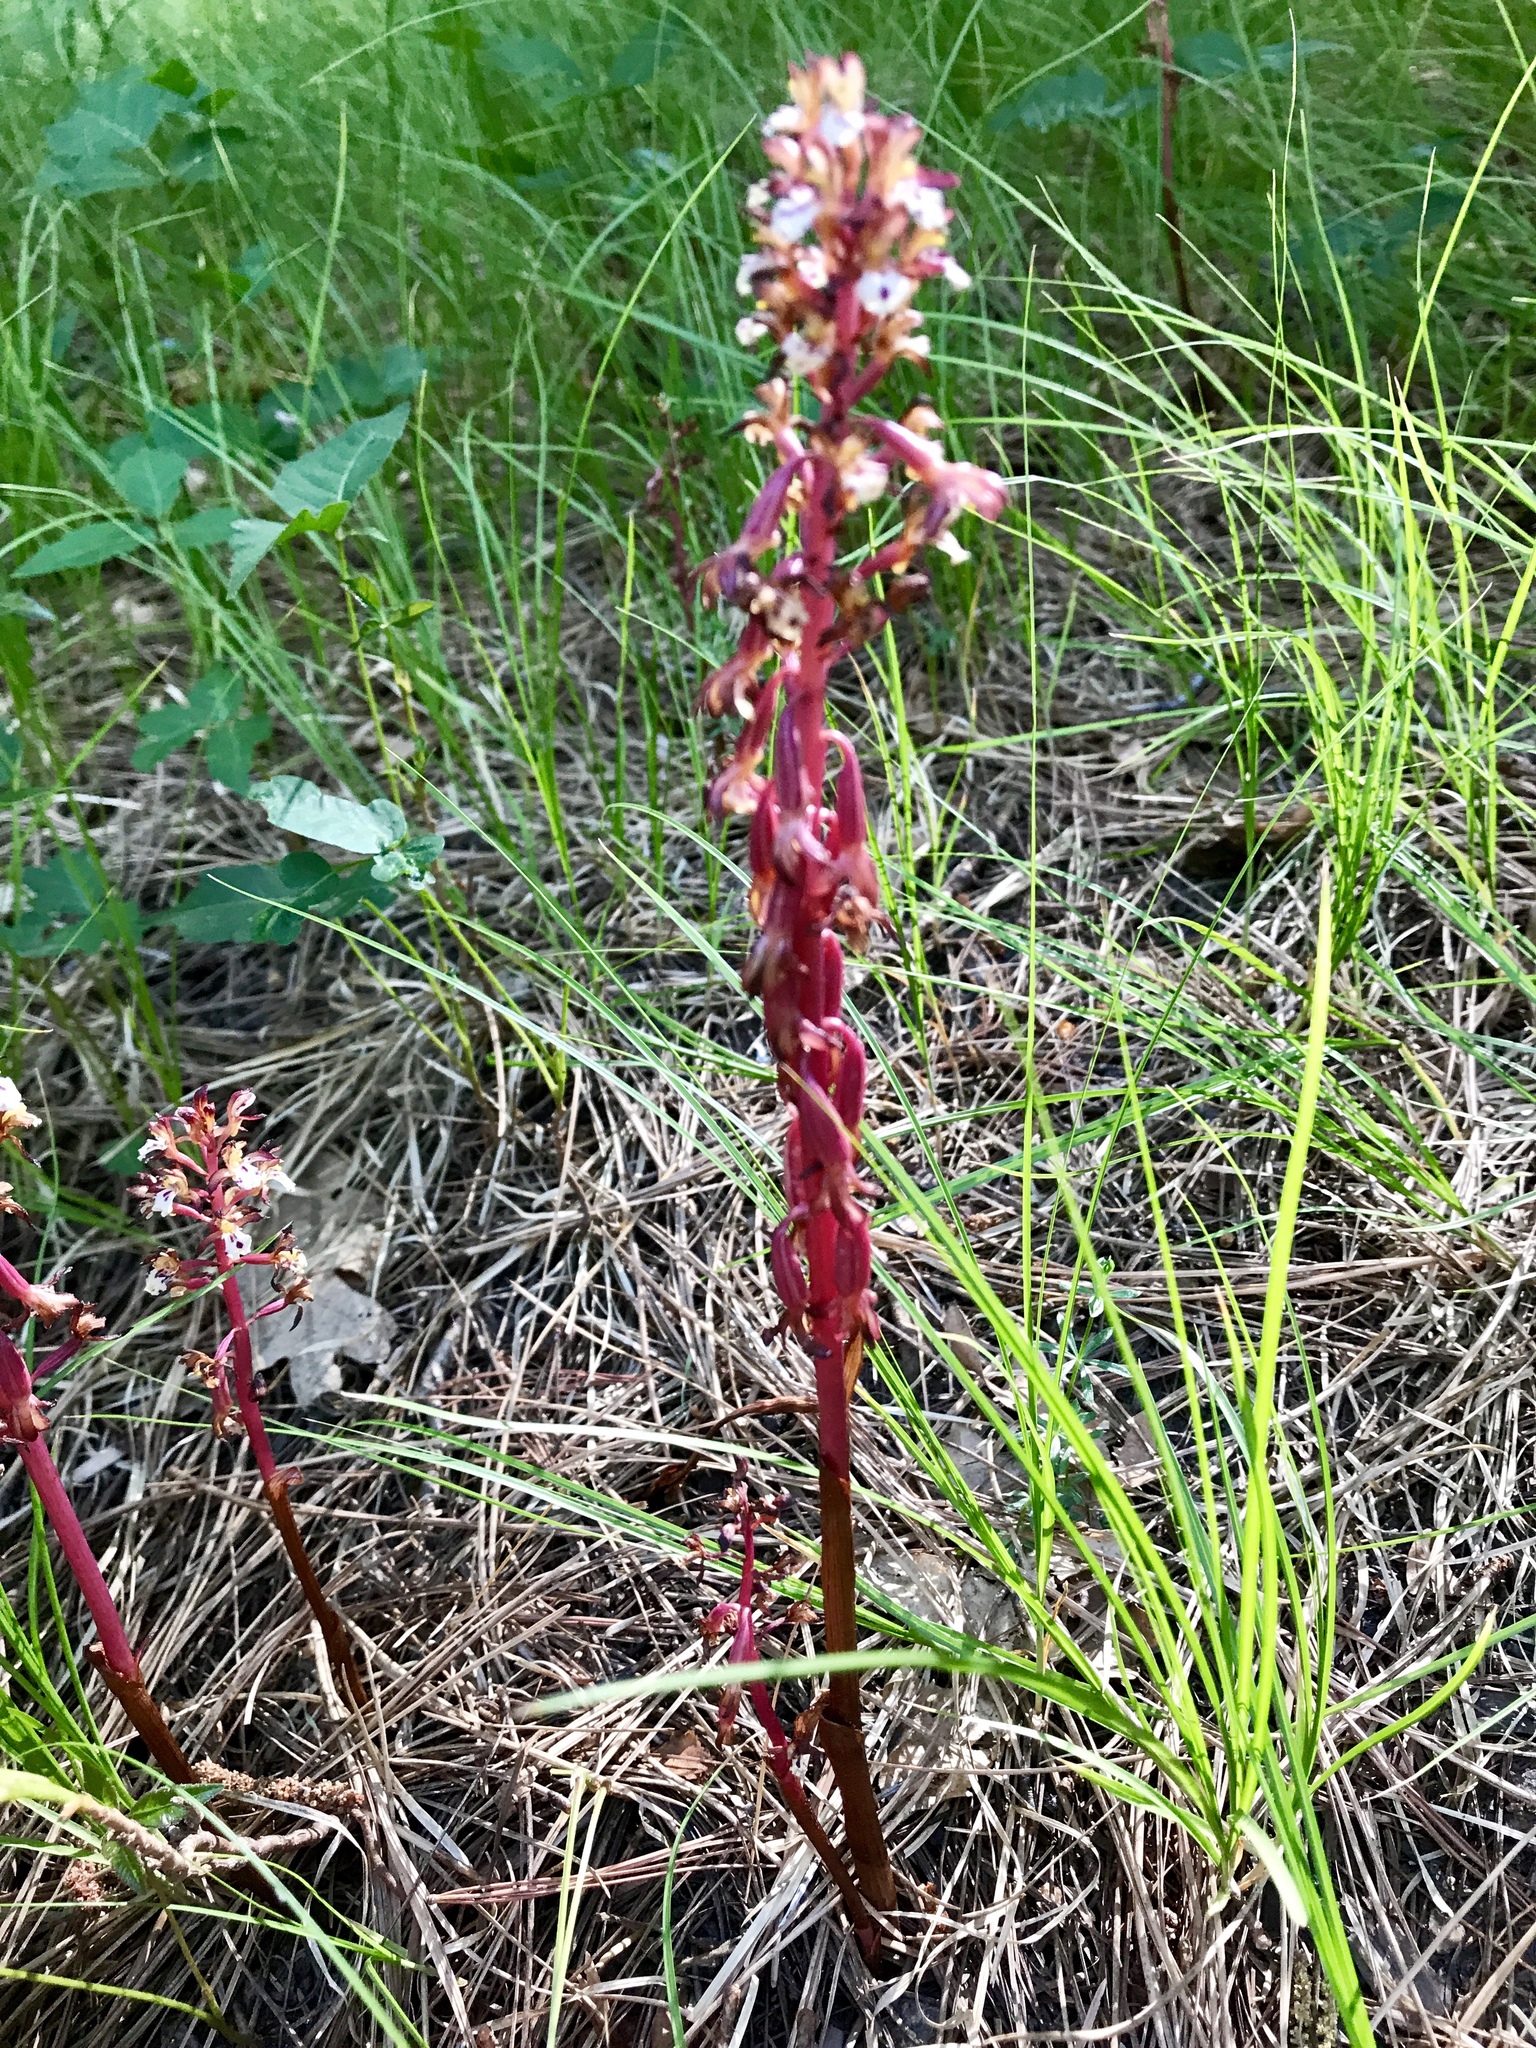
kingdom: Plantae
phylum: Tracheophyta
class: Liliopsida
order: Asparagales
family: Orchidaceae
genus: Corallorhiza
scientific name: Corallorhiza maculata
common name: Spotted coralroot
